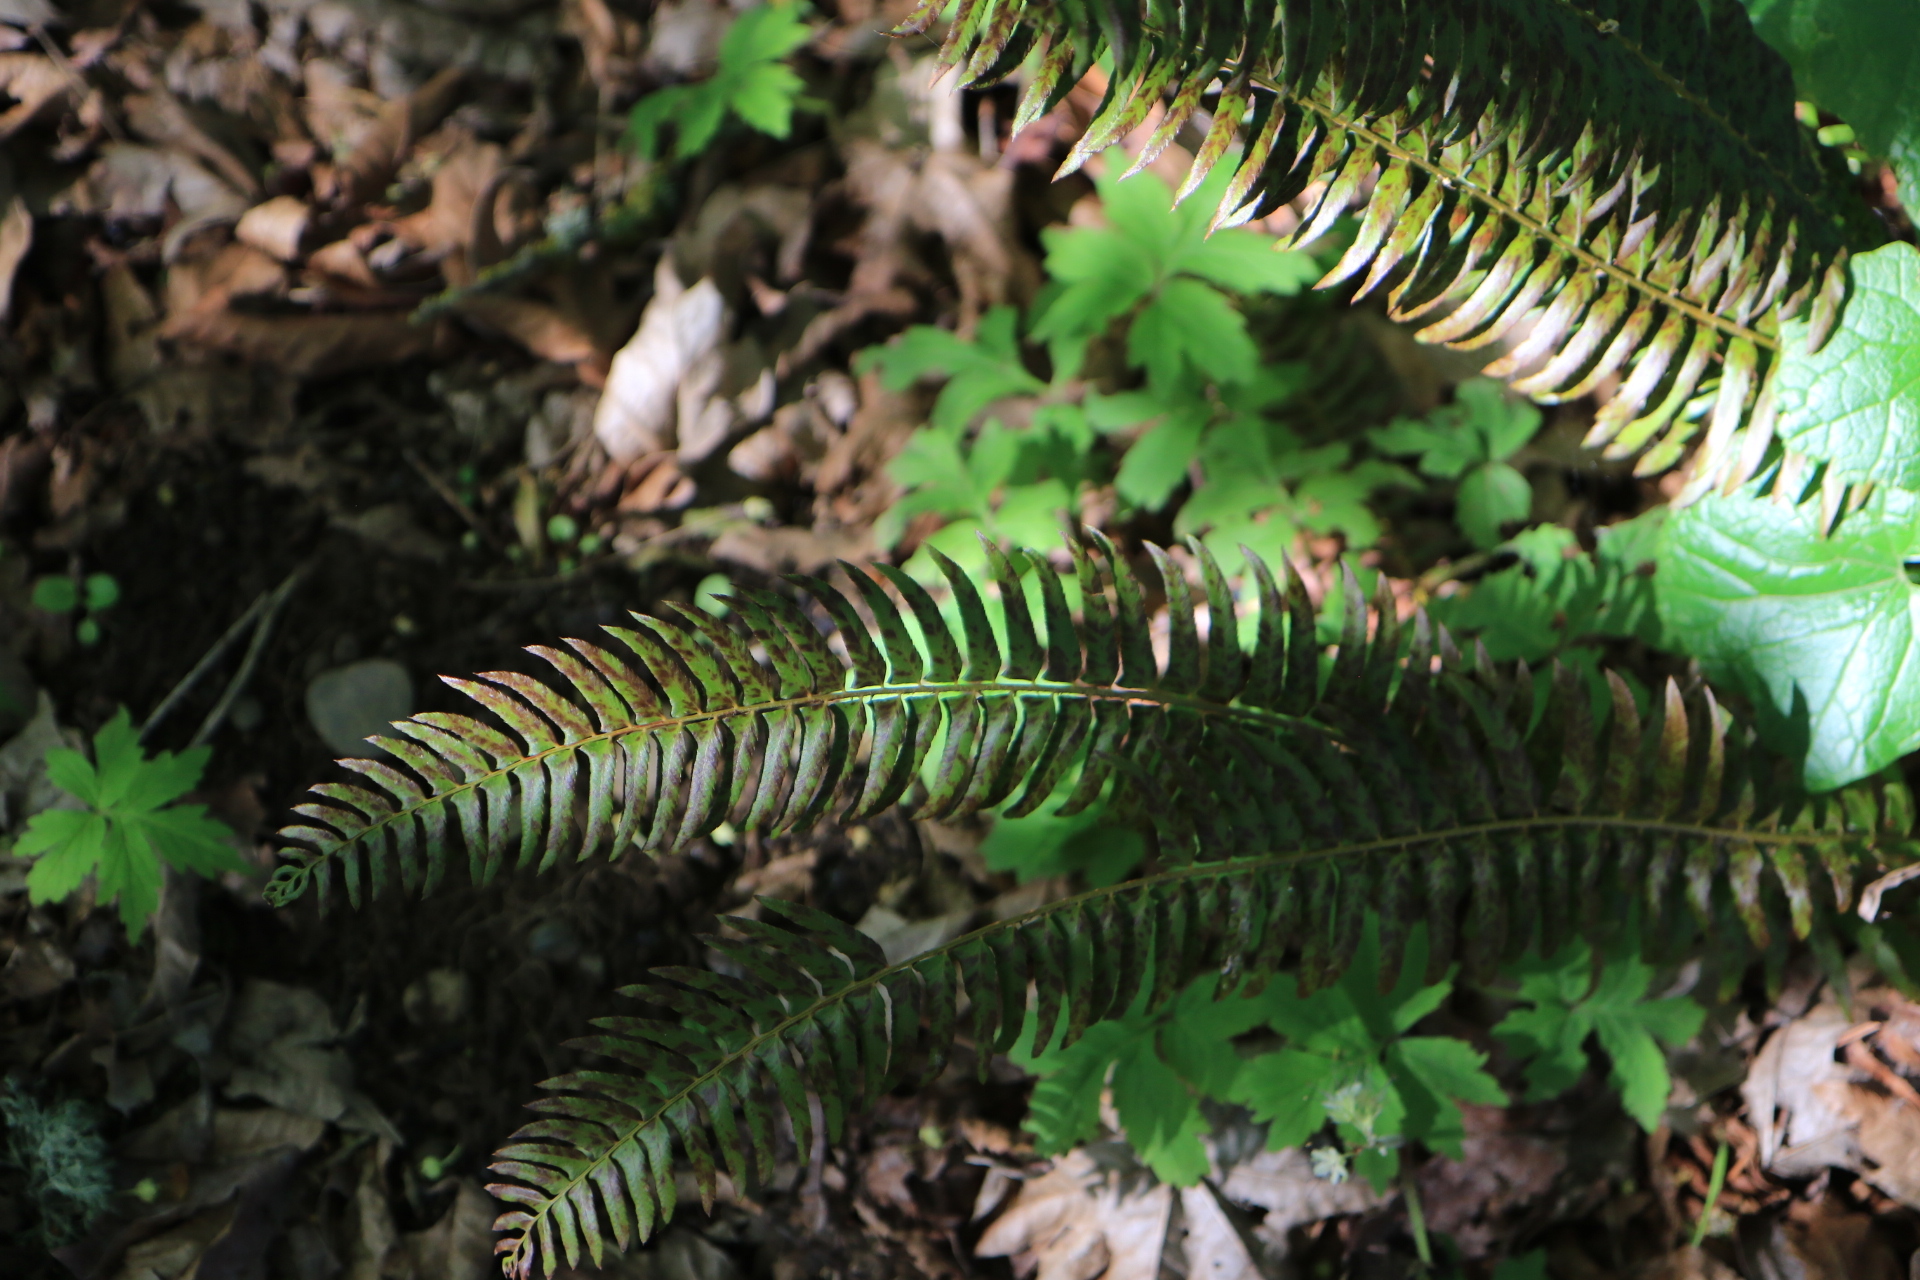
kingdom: Plantae
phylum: Tracheophyta
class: Polypodiopsida
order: Polypodiales
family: Dryopteridaceae
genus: Polystichum
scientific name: Polystichum munitum
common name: Western sword-fern
